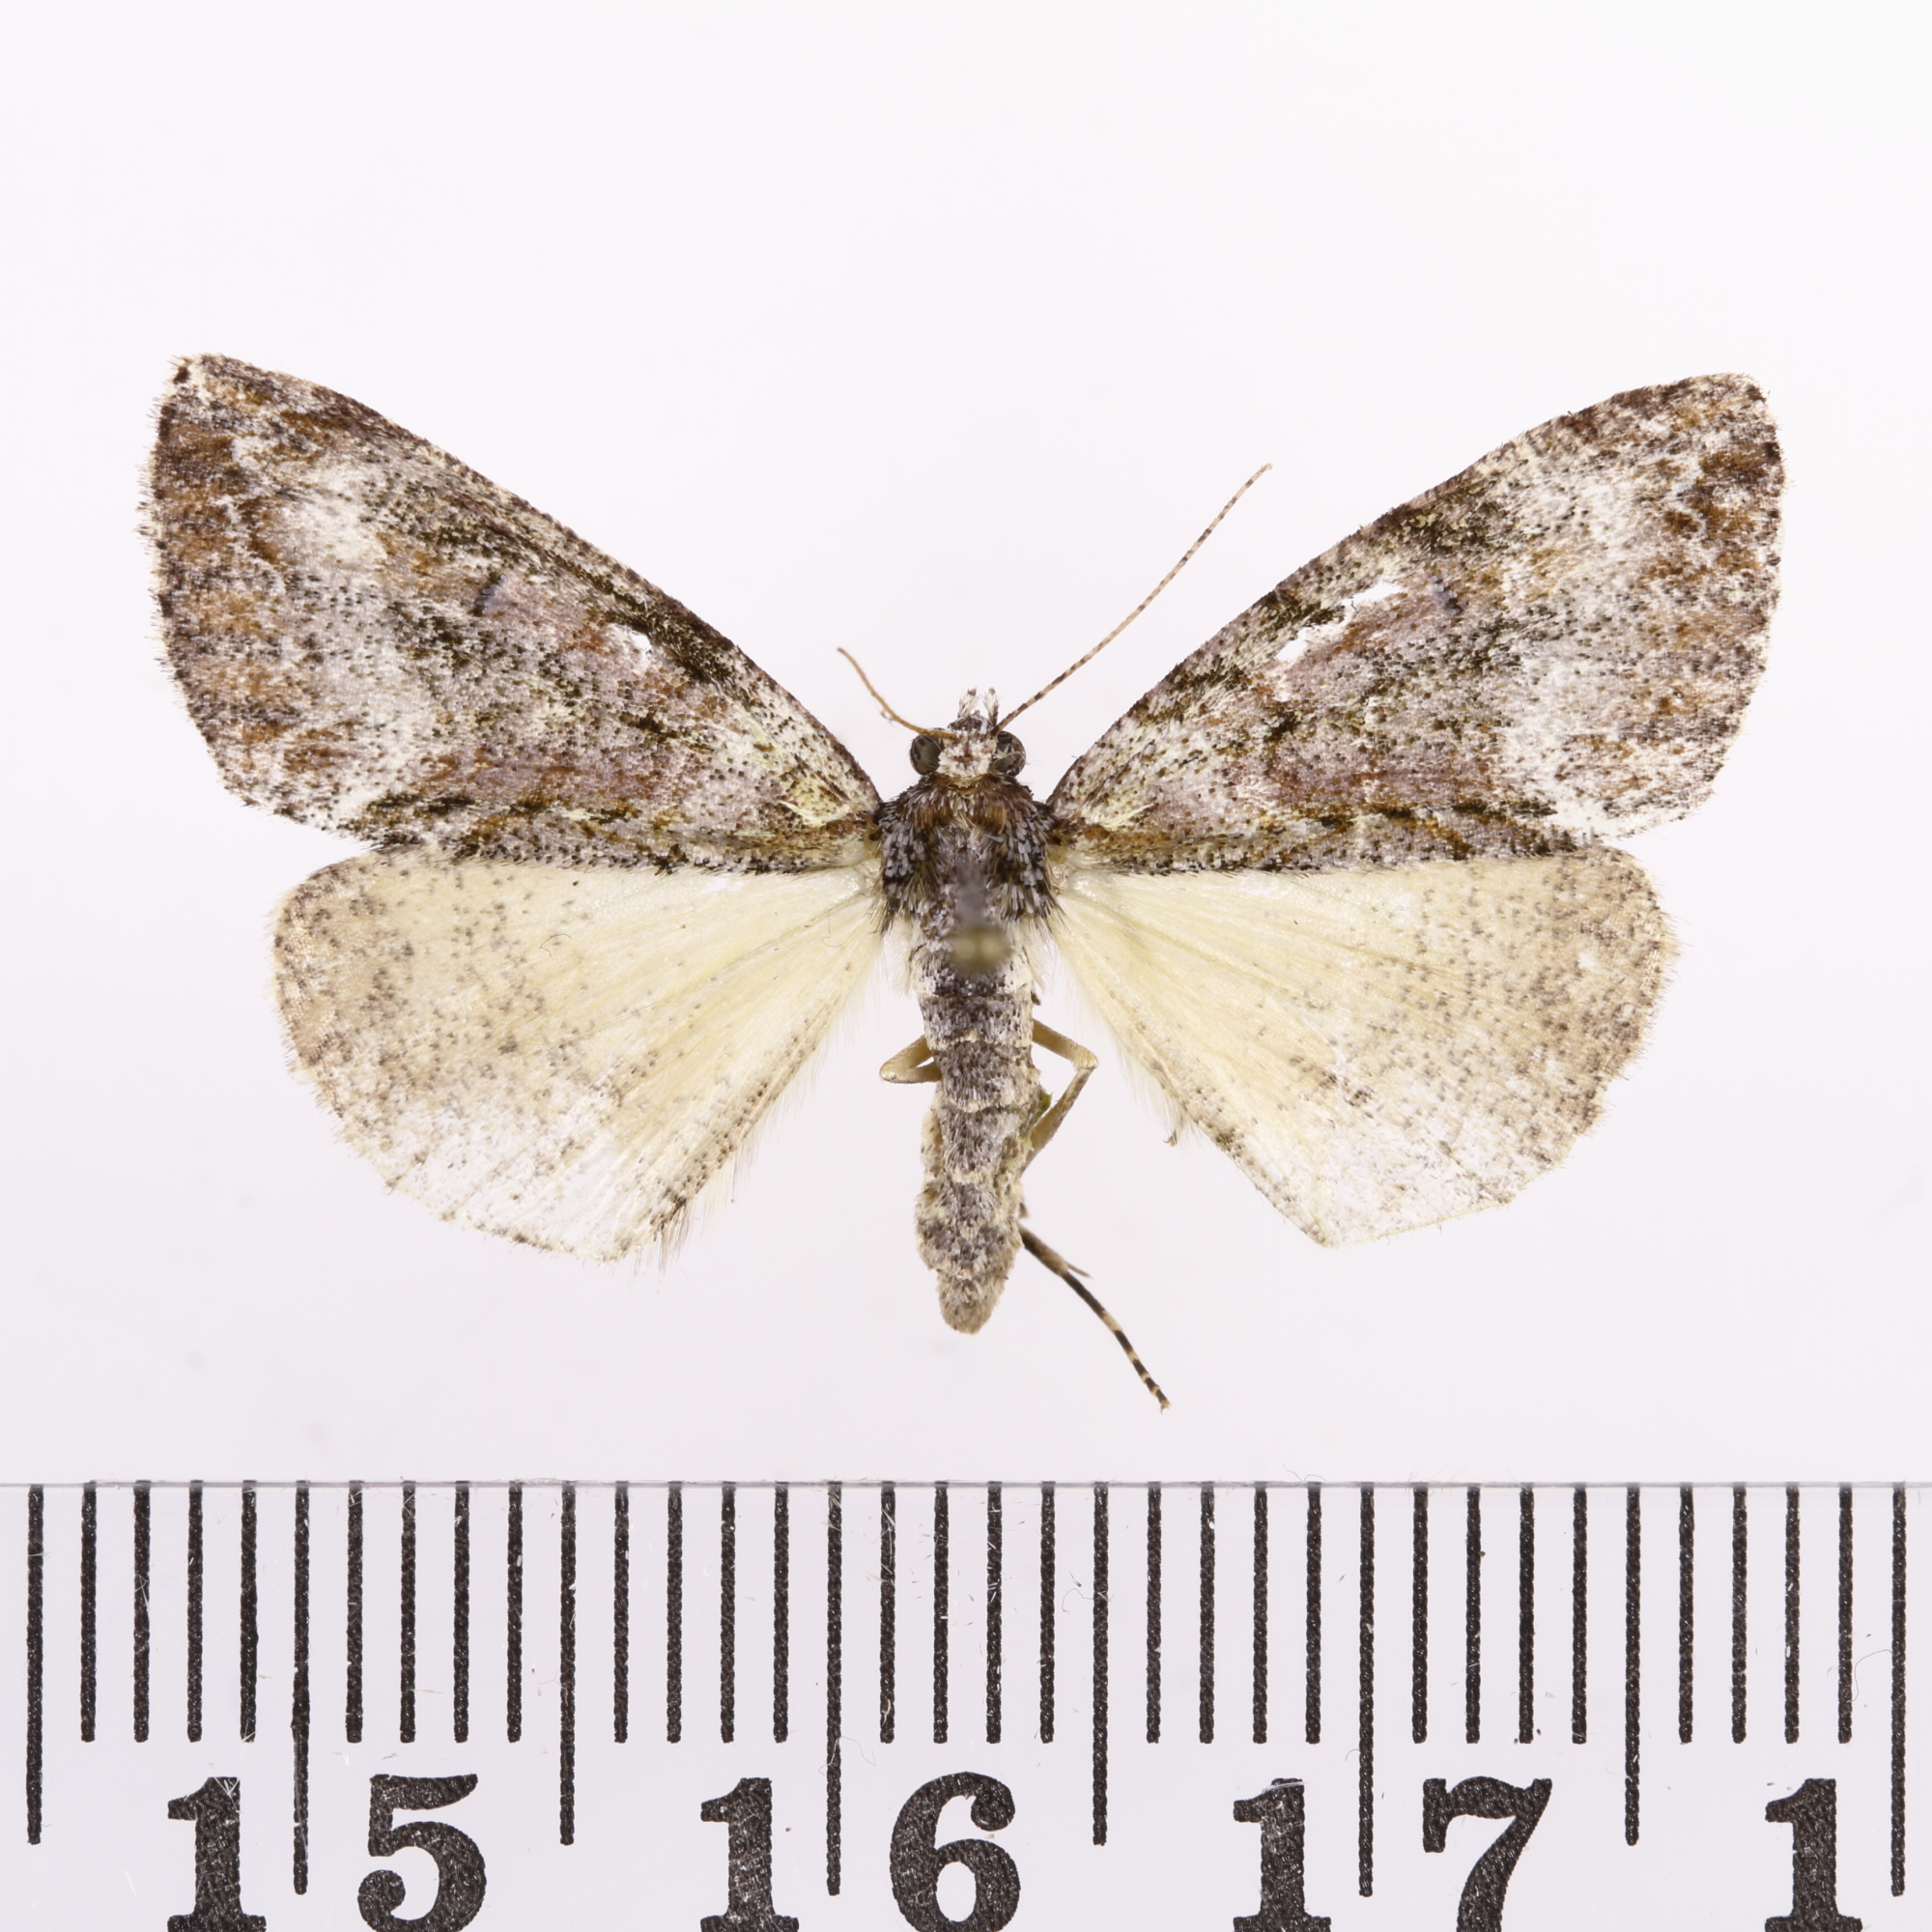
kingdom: Animalia
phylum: Arthropoda
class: Insecta
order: Lepidoptera
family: Geometridae
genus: Pseudocoremia
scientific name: Pseudocoremia suavis
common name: Common forest looper
